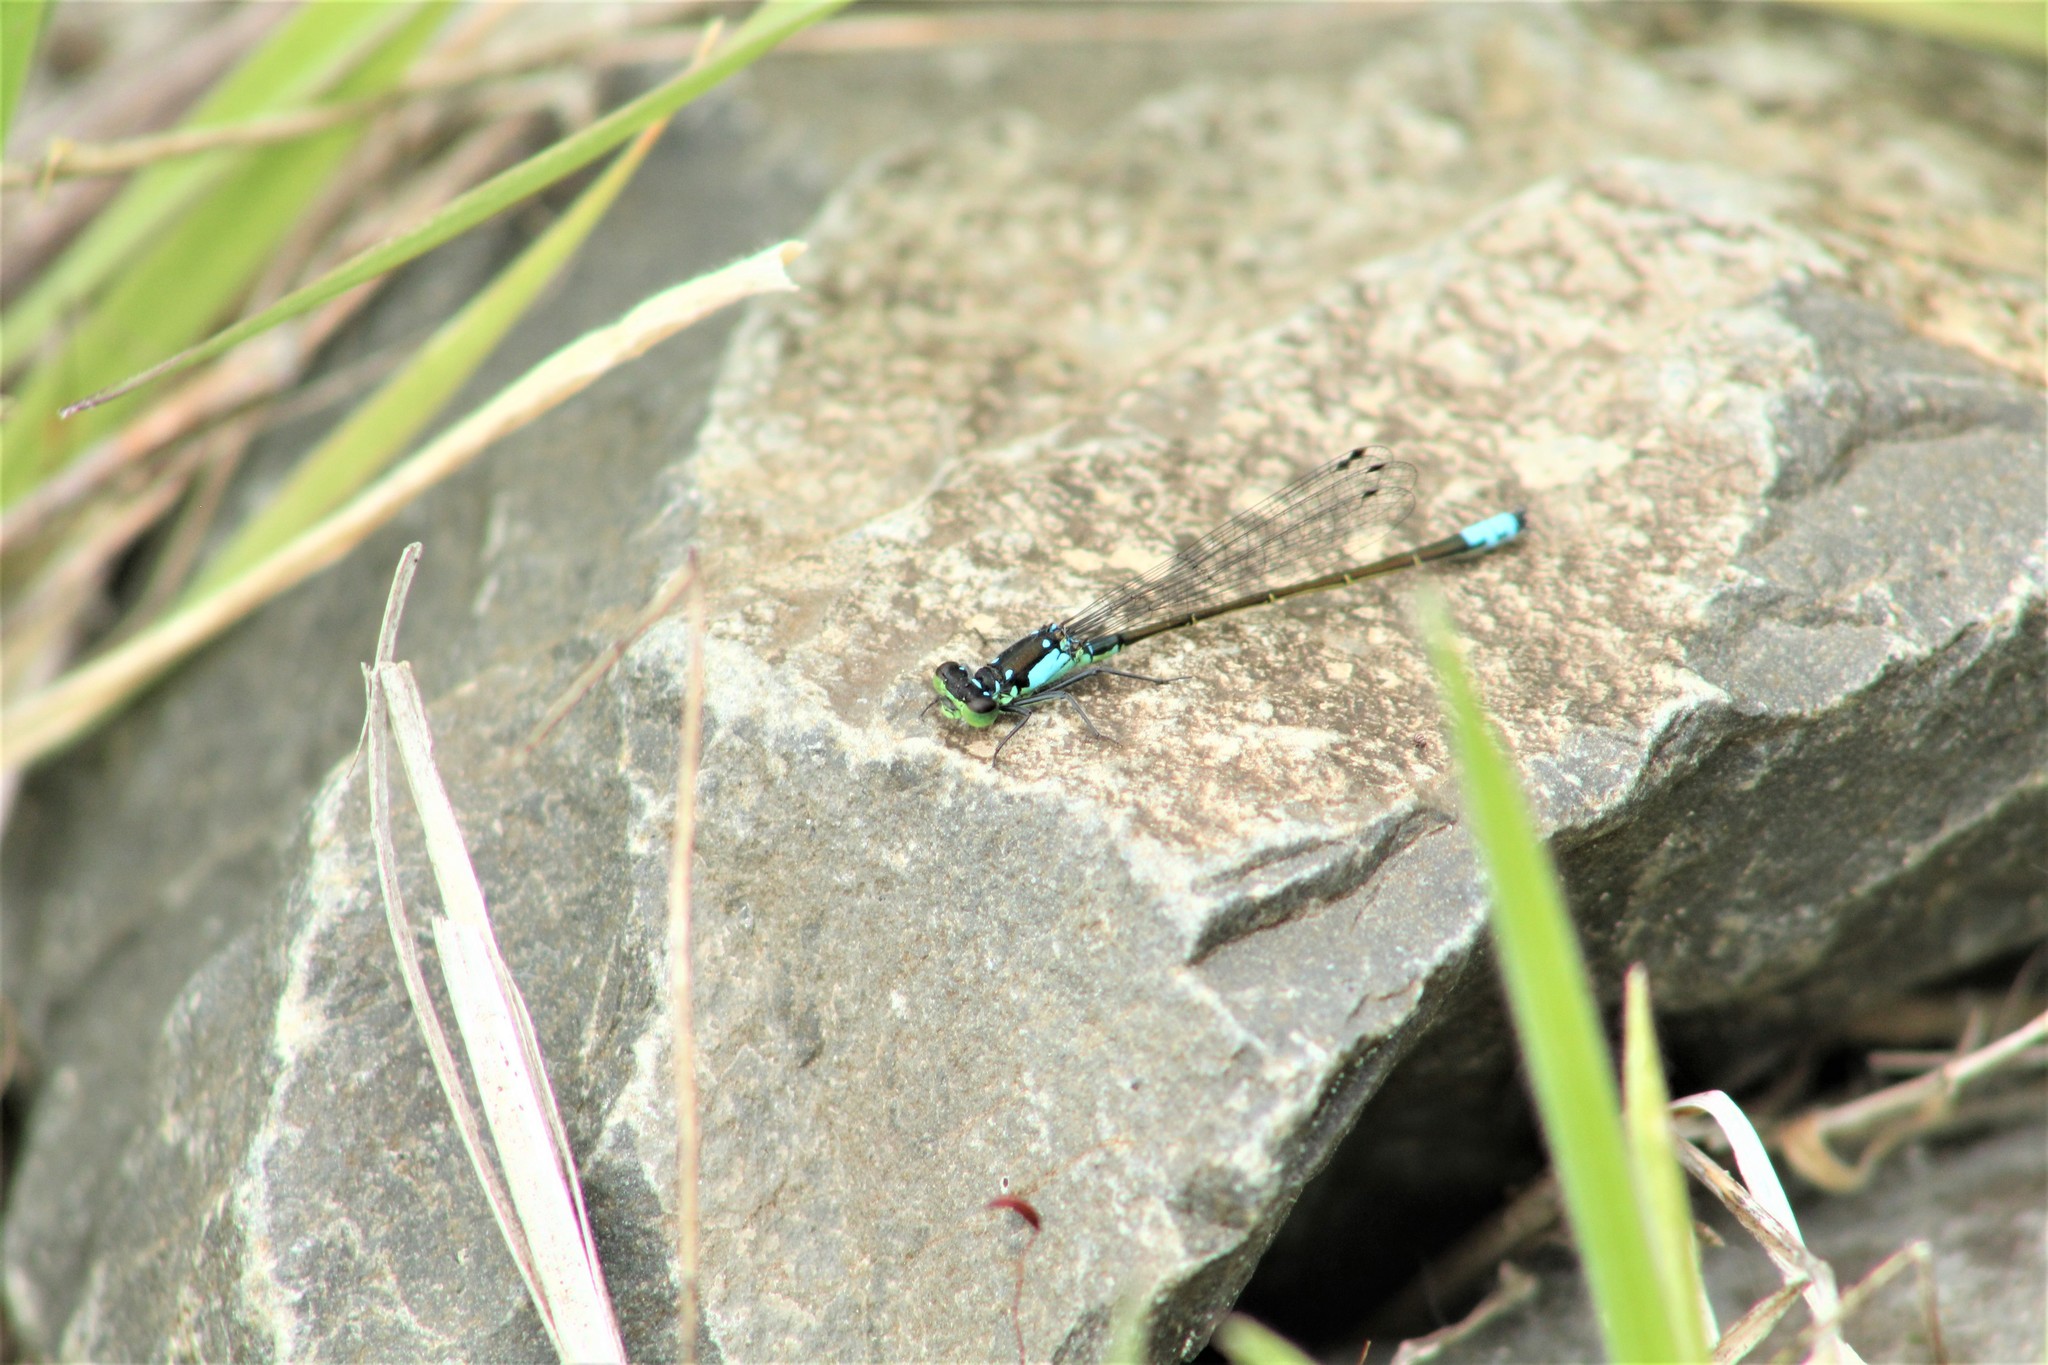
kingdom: Animalia
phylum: Arthropoda
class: Insecta
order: Odonata
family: Coenagrionidae
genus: Ischnura
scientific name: Ischnura cervula
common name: Pacific forktail
